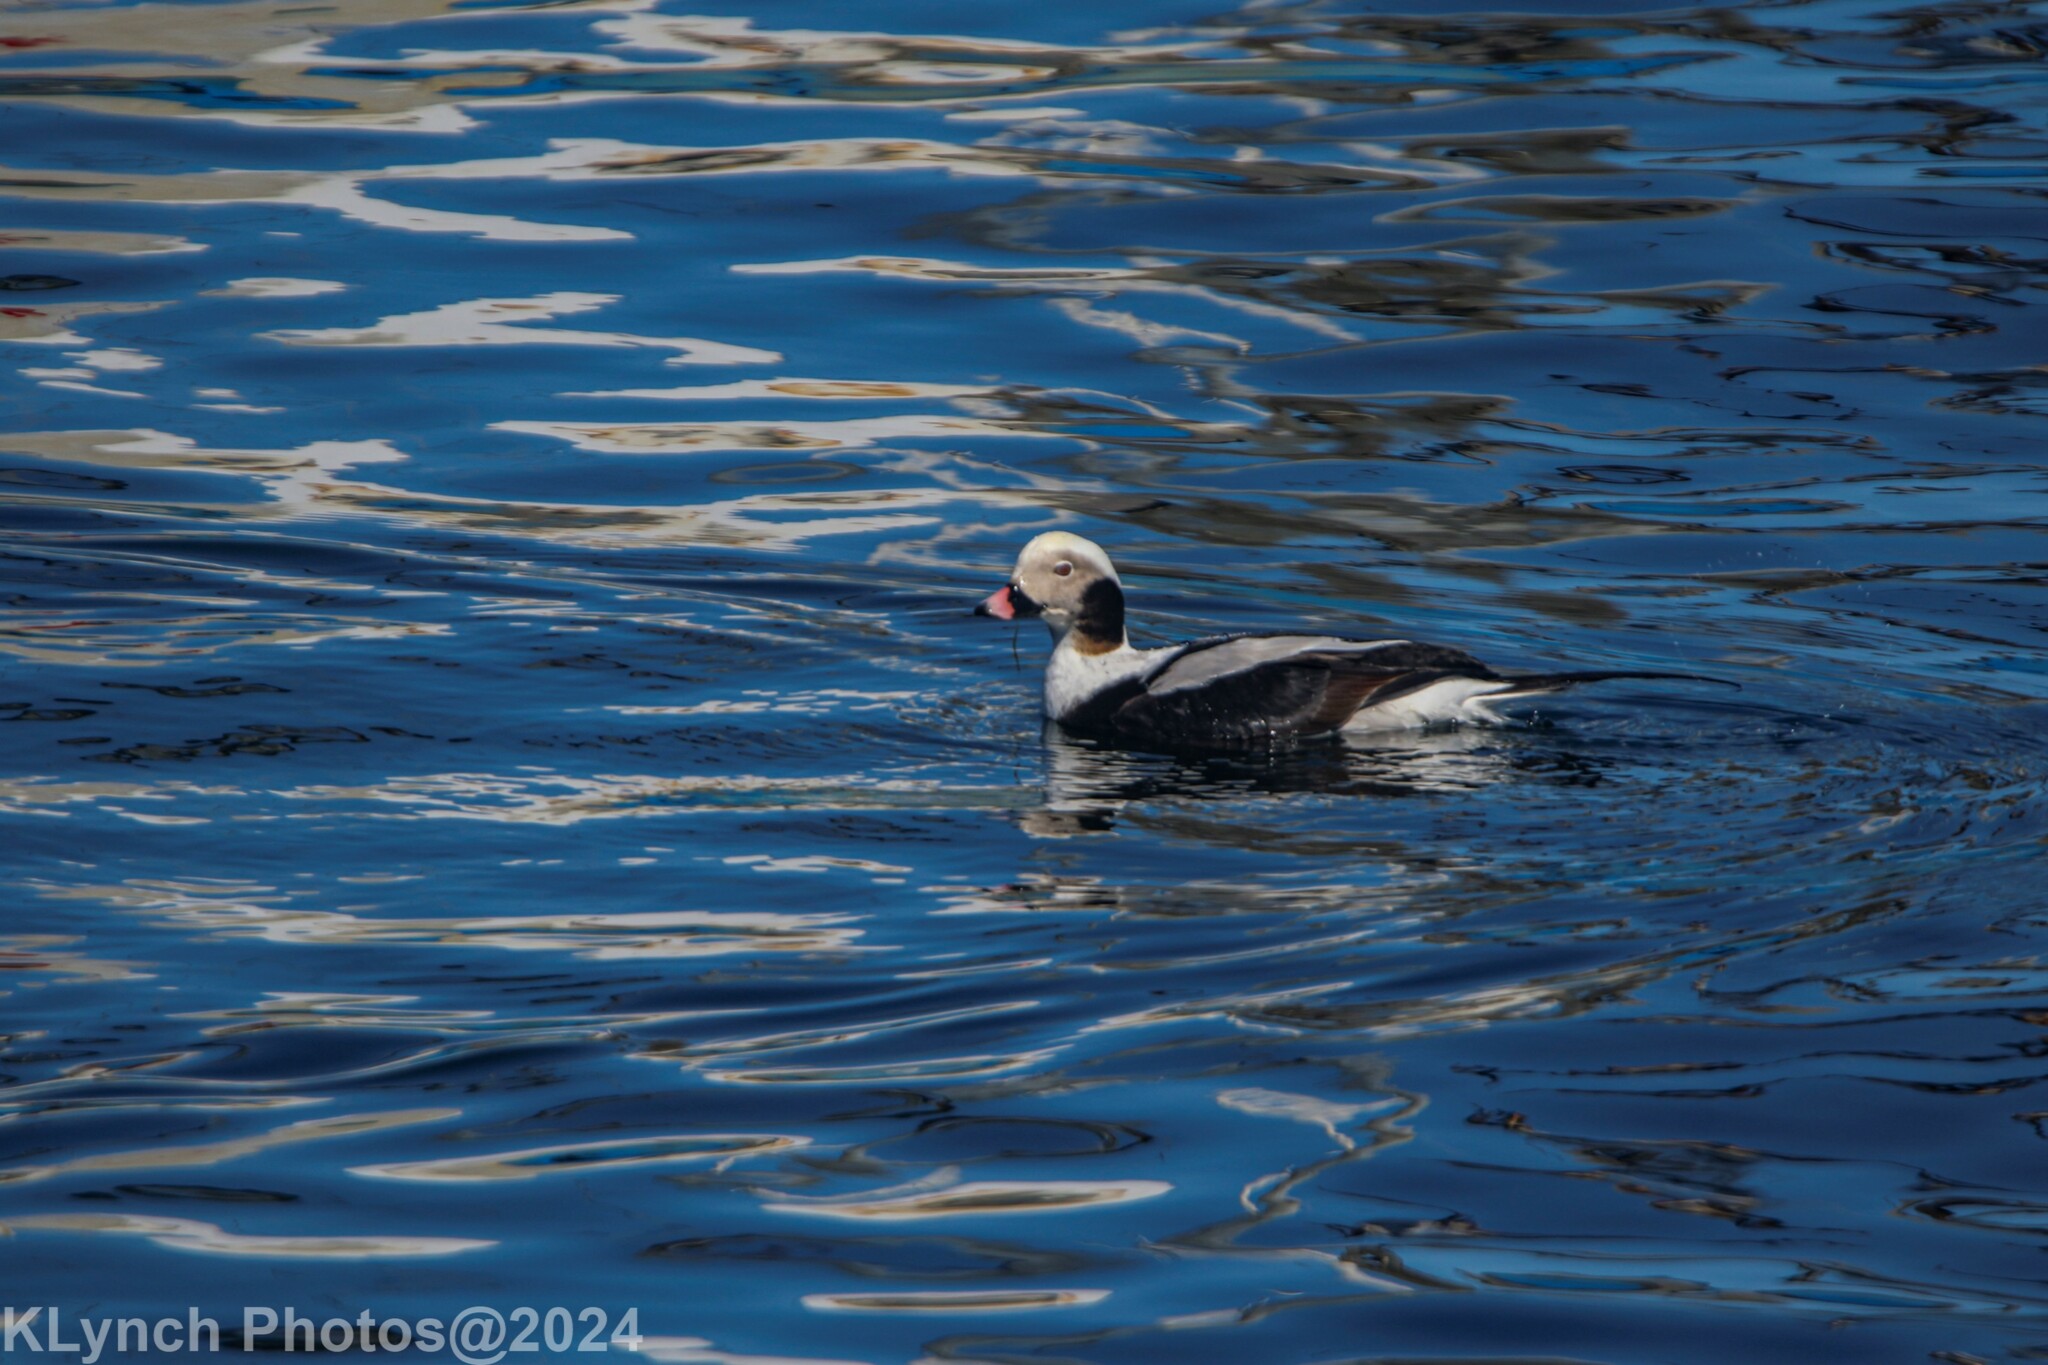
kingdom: Animalia
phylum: Chordata
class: Aves
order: Anseriformes
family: Anatidae
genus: Clangula
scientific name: Clangula hyemalis
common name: Long-tailed duck
